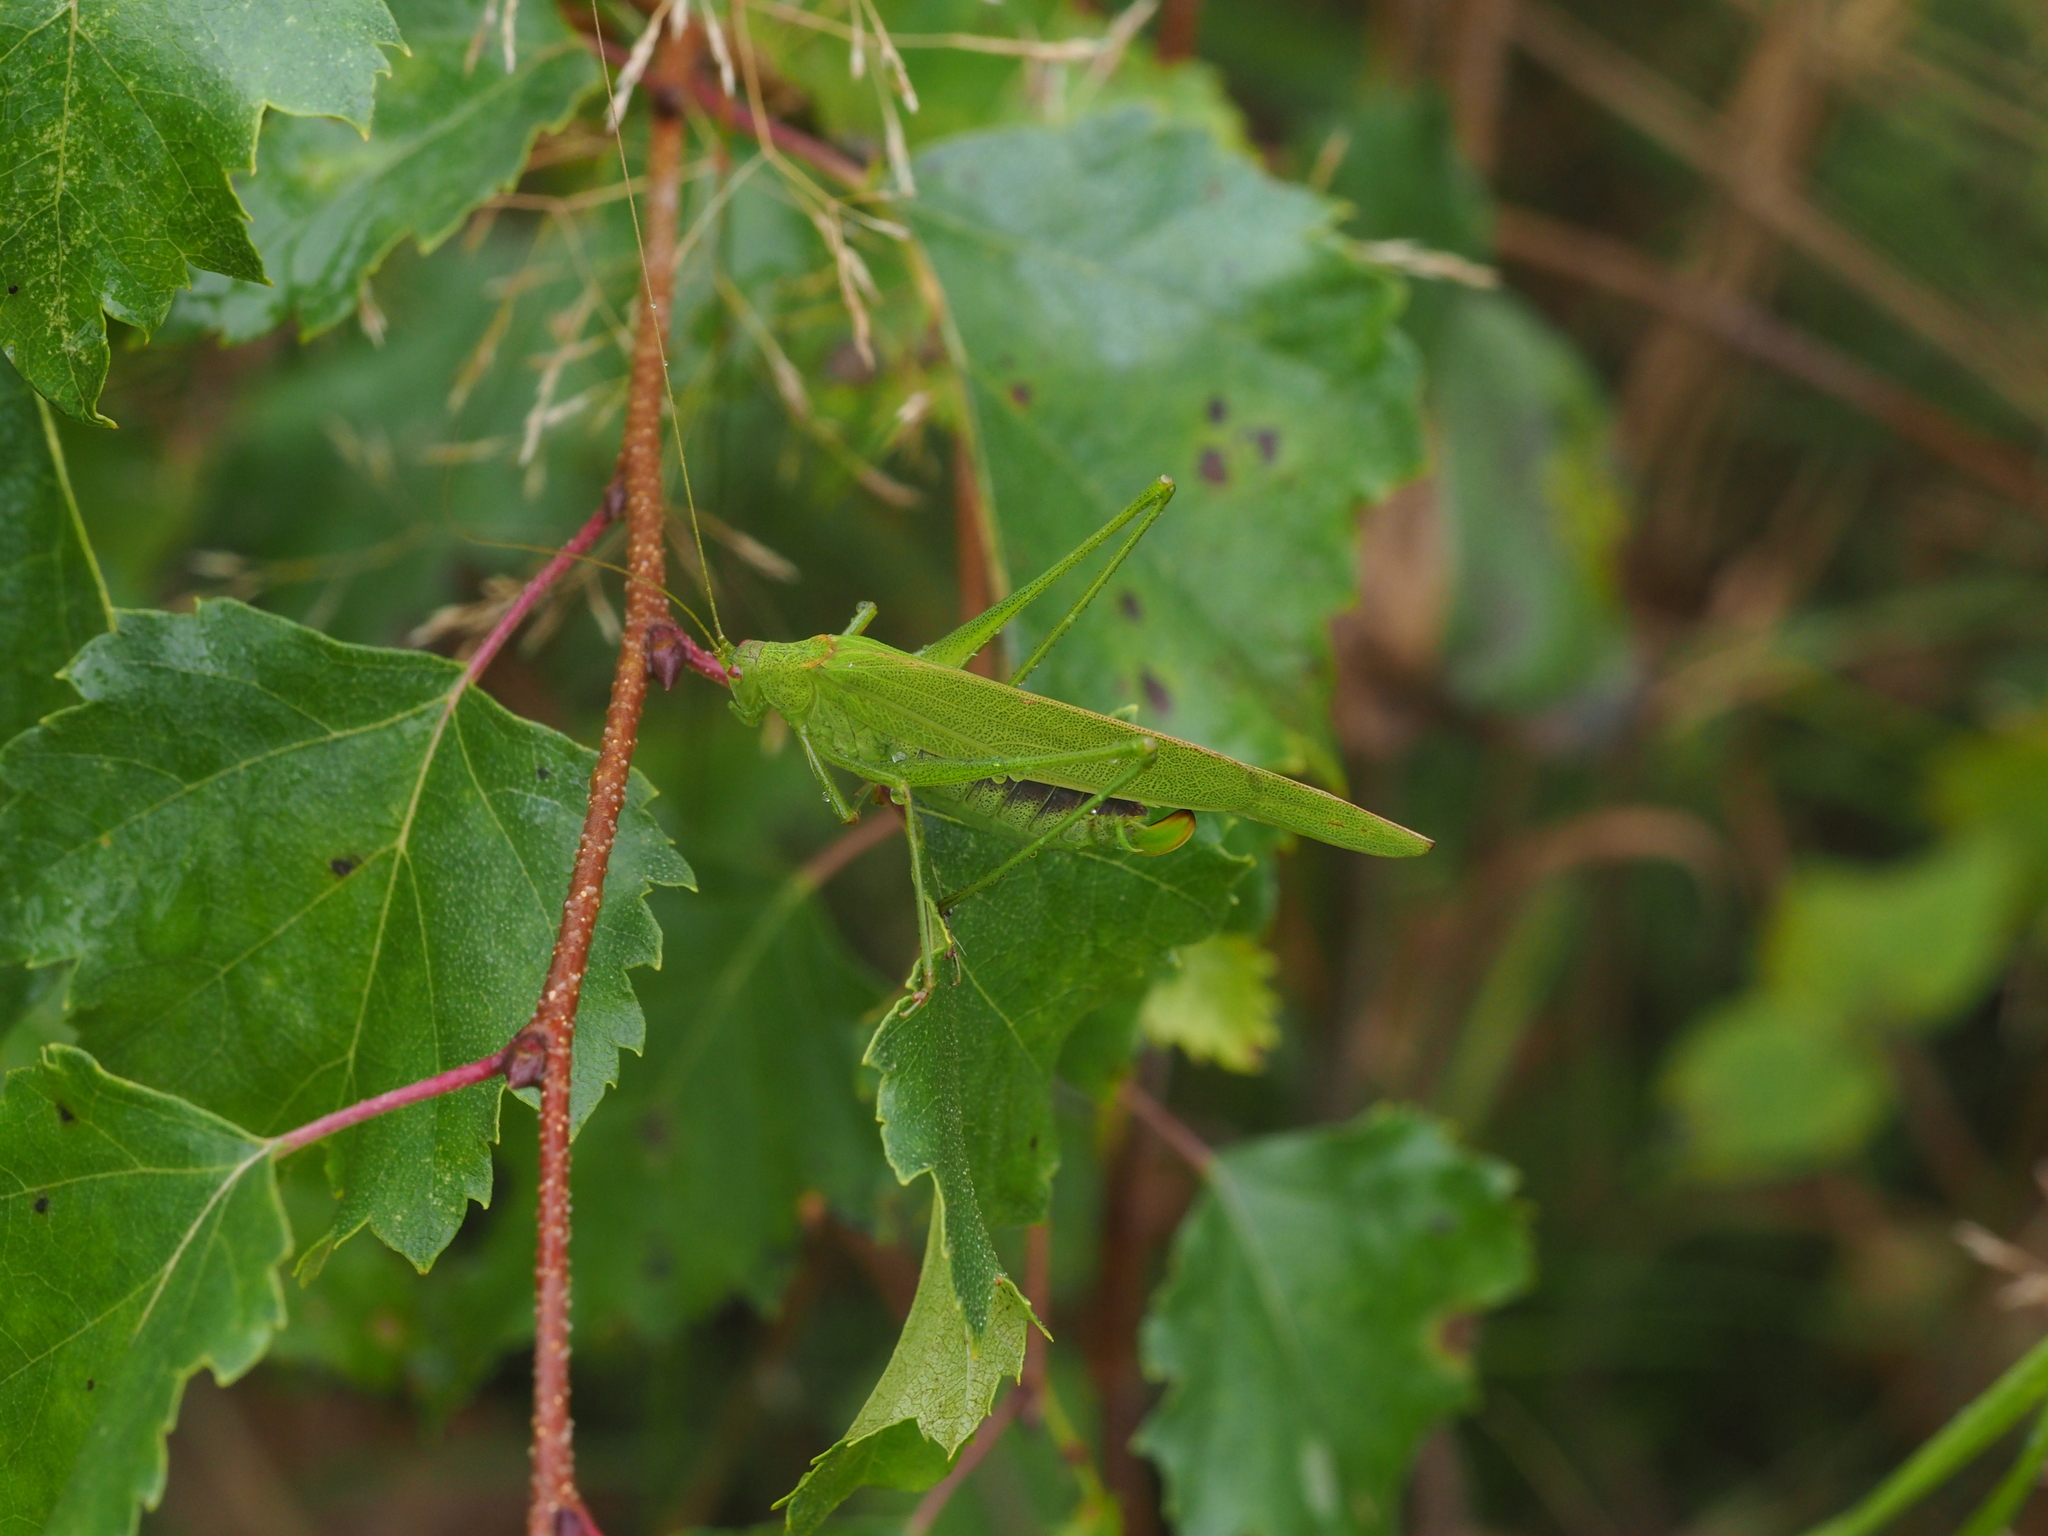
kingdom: Animalia
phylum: Arthropoda
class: Insecta
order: Orthoptera
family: Tettigoniidae
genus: Phaneroptera
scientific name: Phaneroptera falcata
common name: Sickle-bearing bush-cricket
